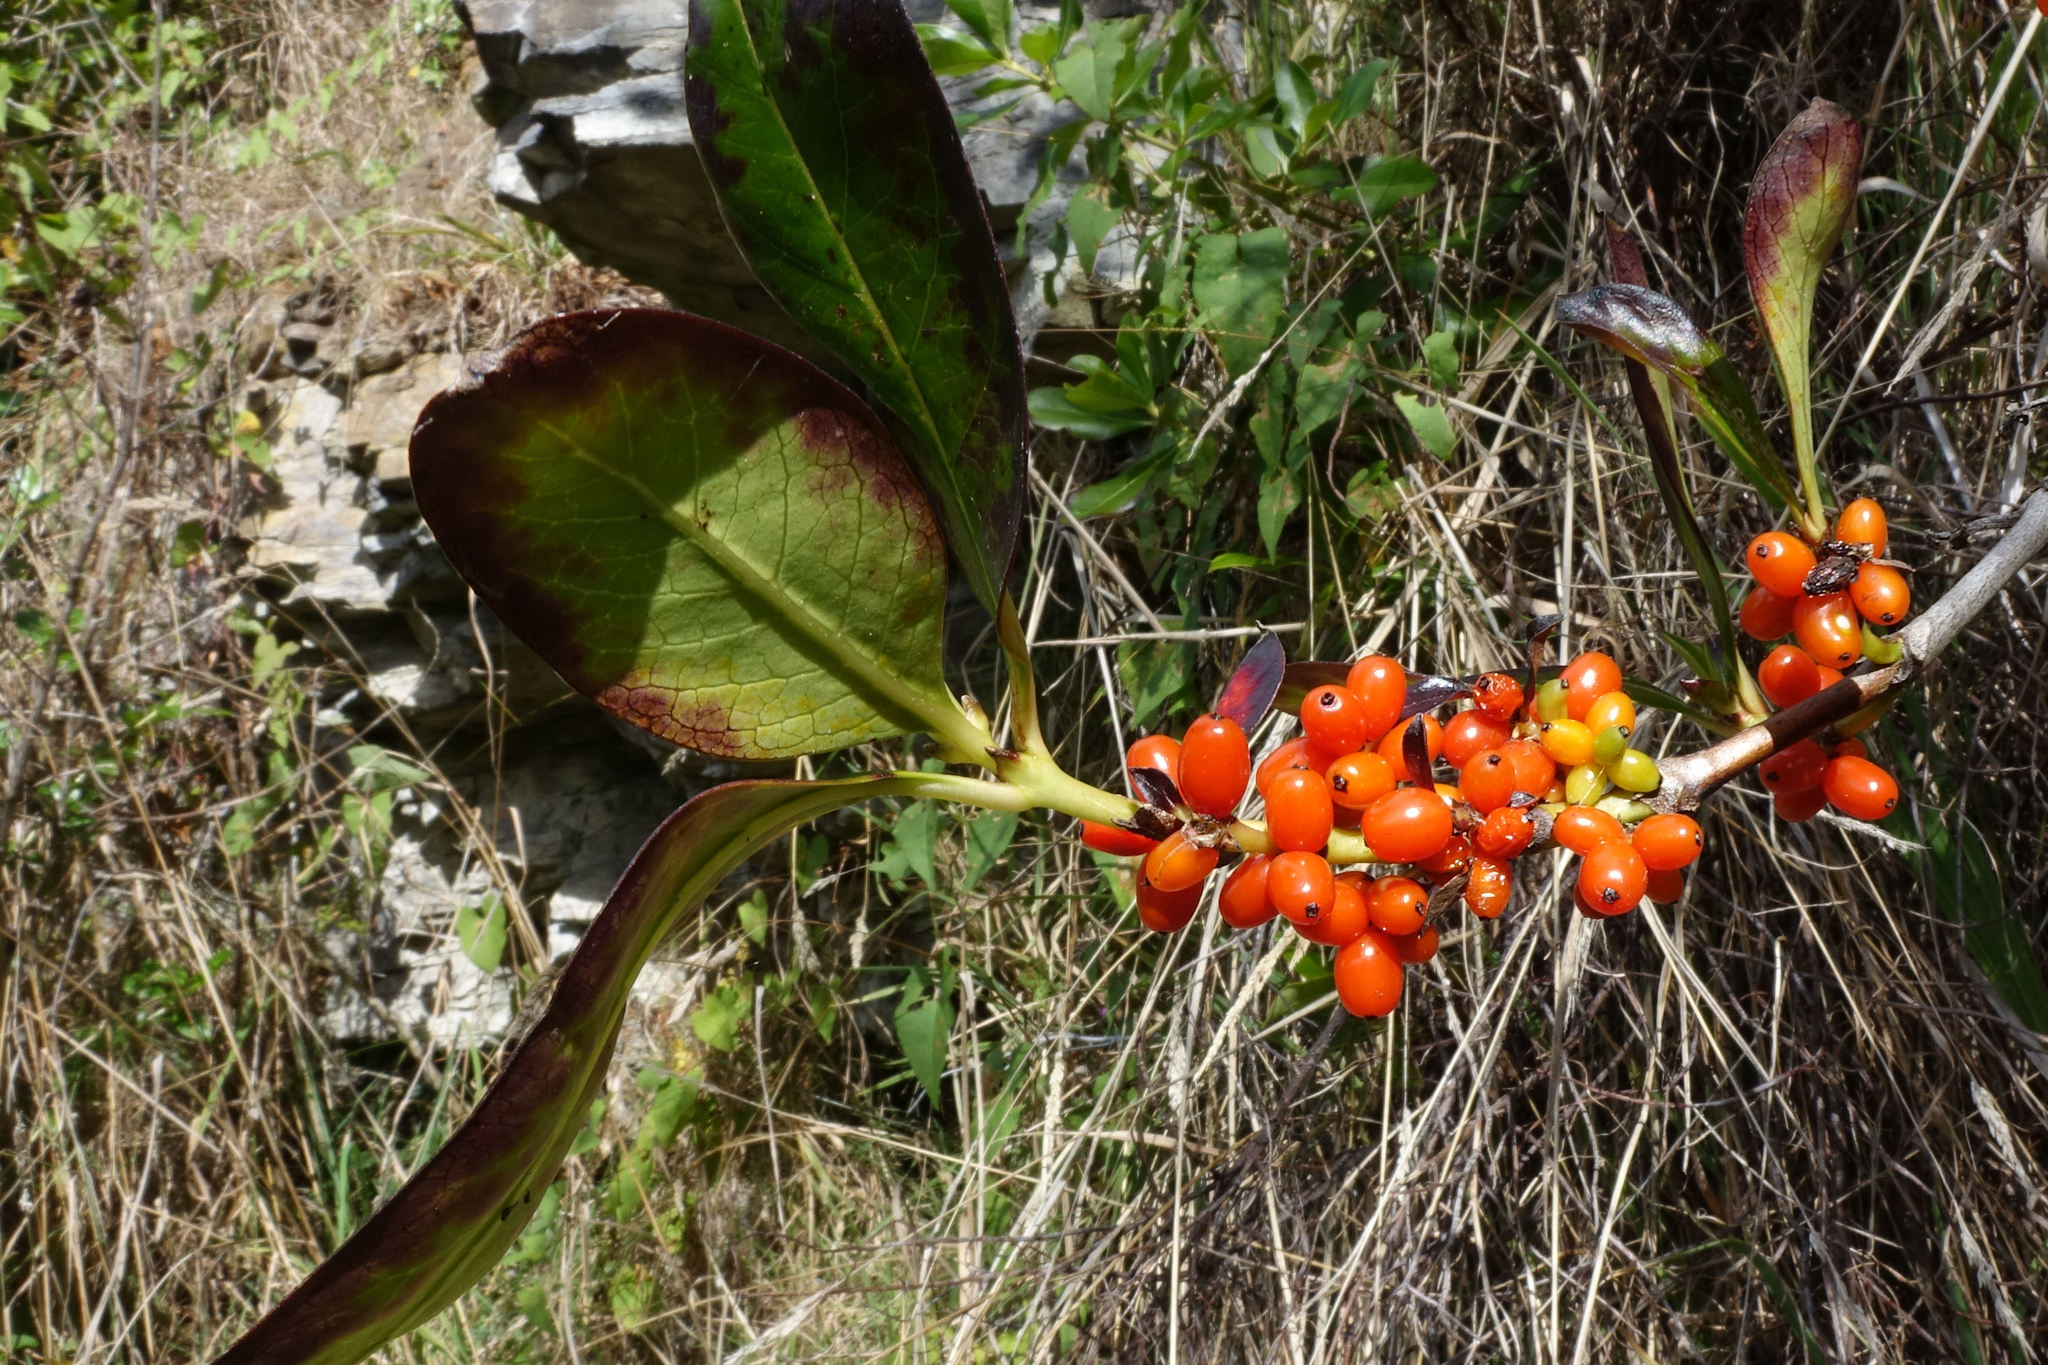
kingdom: Plantae
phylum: Tracheophyta
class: Magnoliopsida
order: Gentianales
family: Rubiaceae
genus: Coprosma
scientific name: Coprosma robusta
